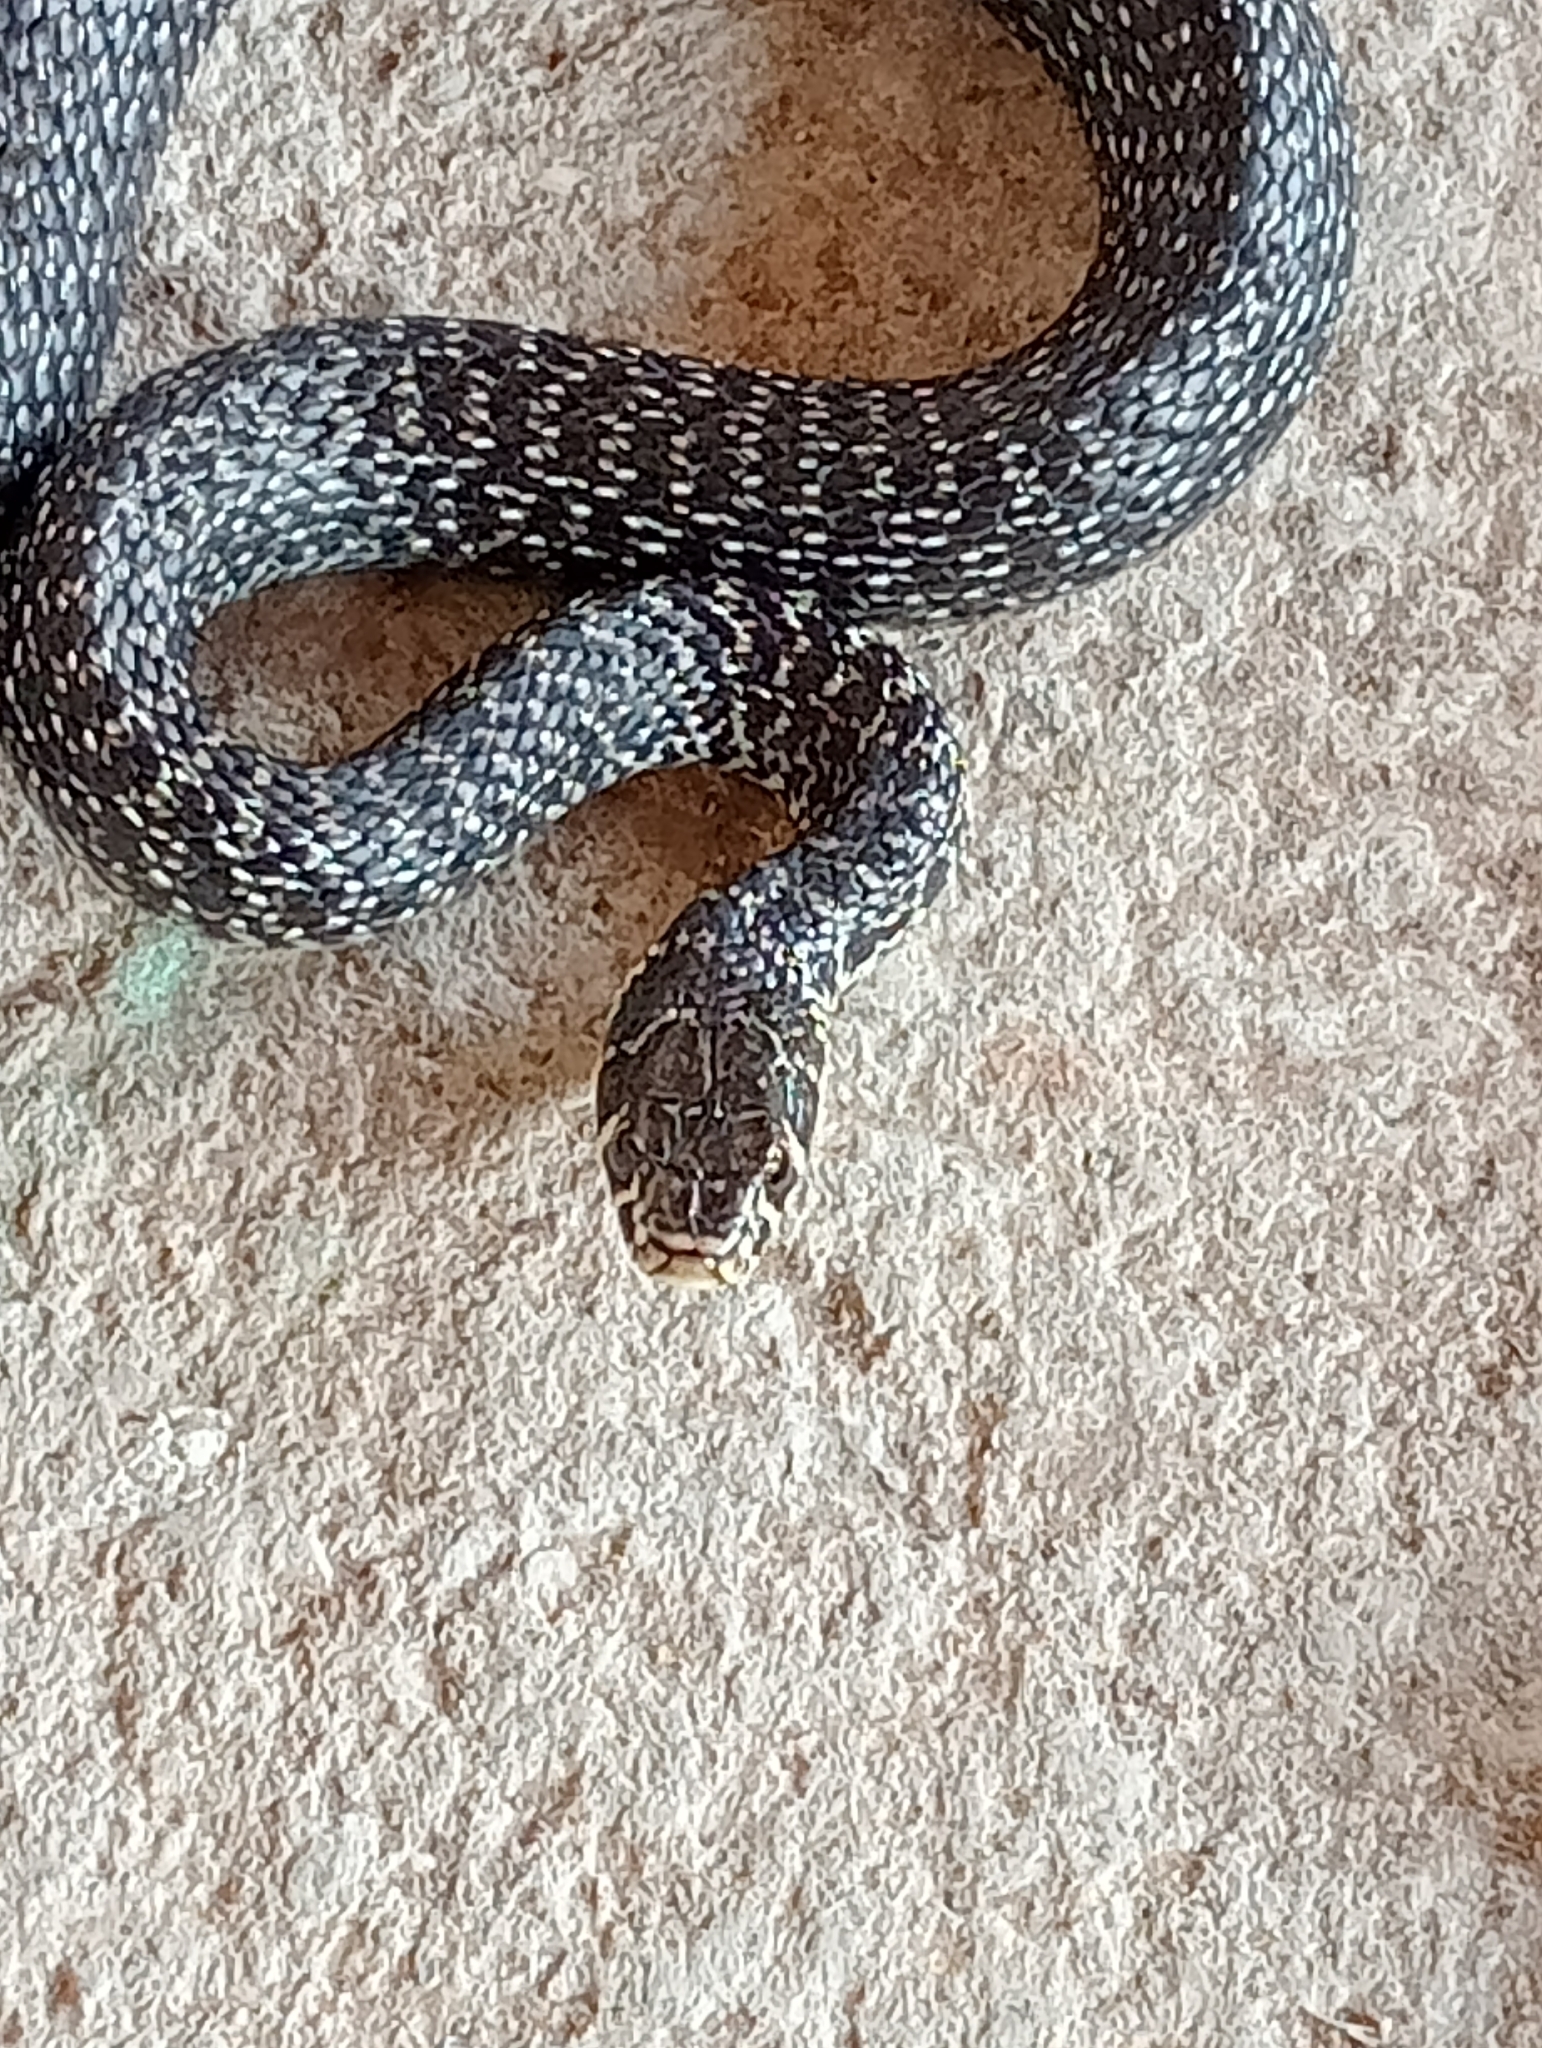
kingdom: Animalia
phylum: Chordata
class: Squamata
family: Colubridae
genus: Hierophis
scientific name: Hierophis viridiflavus
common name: Green whip snake
